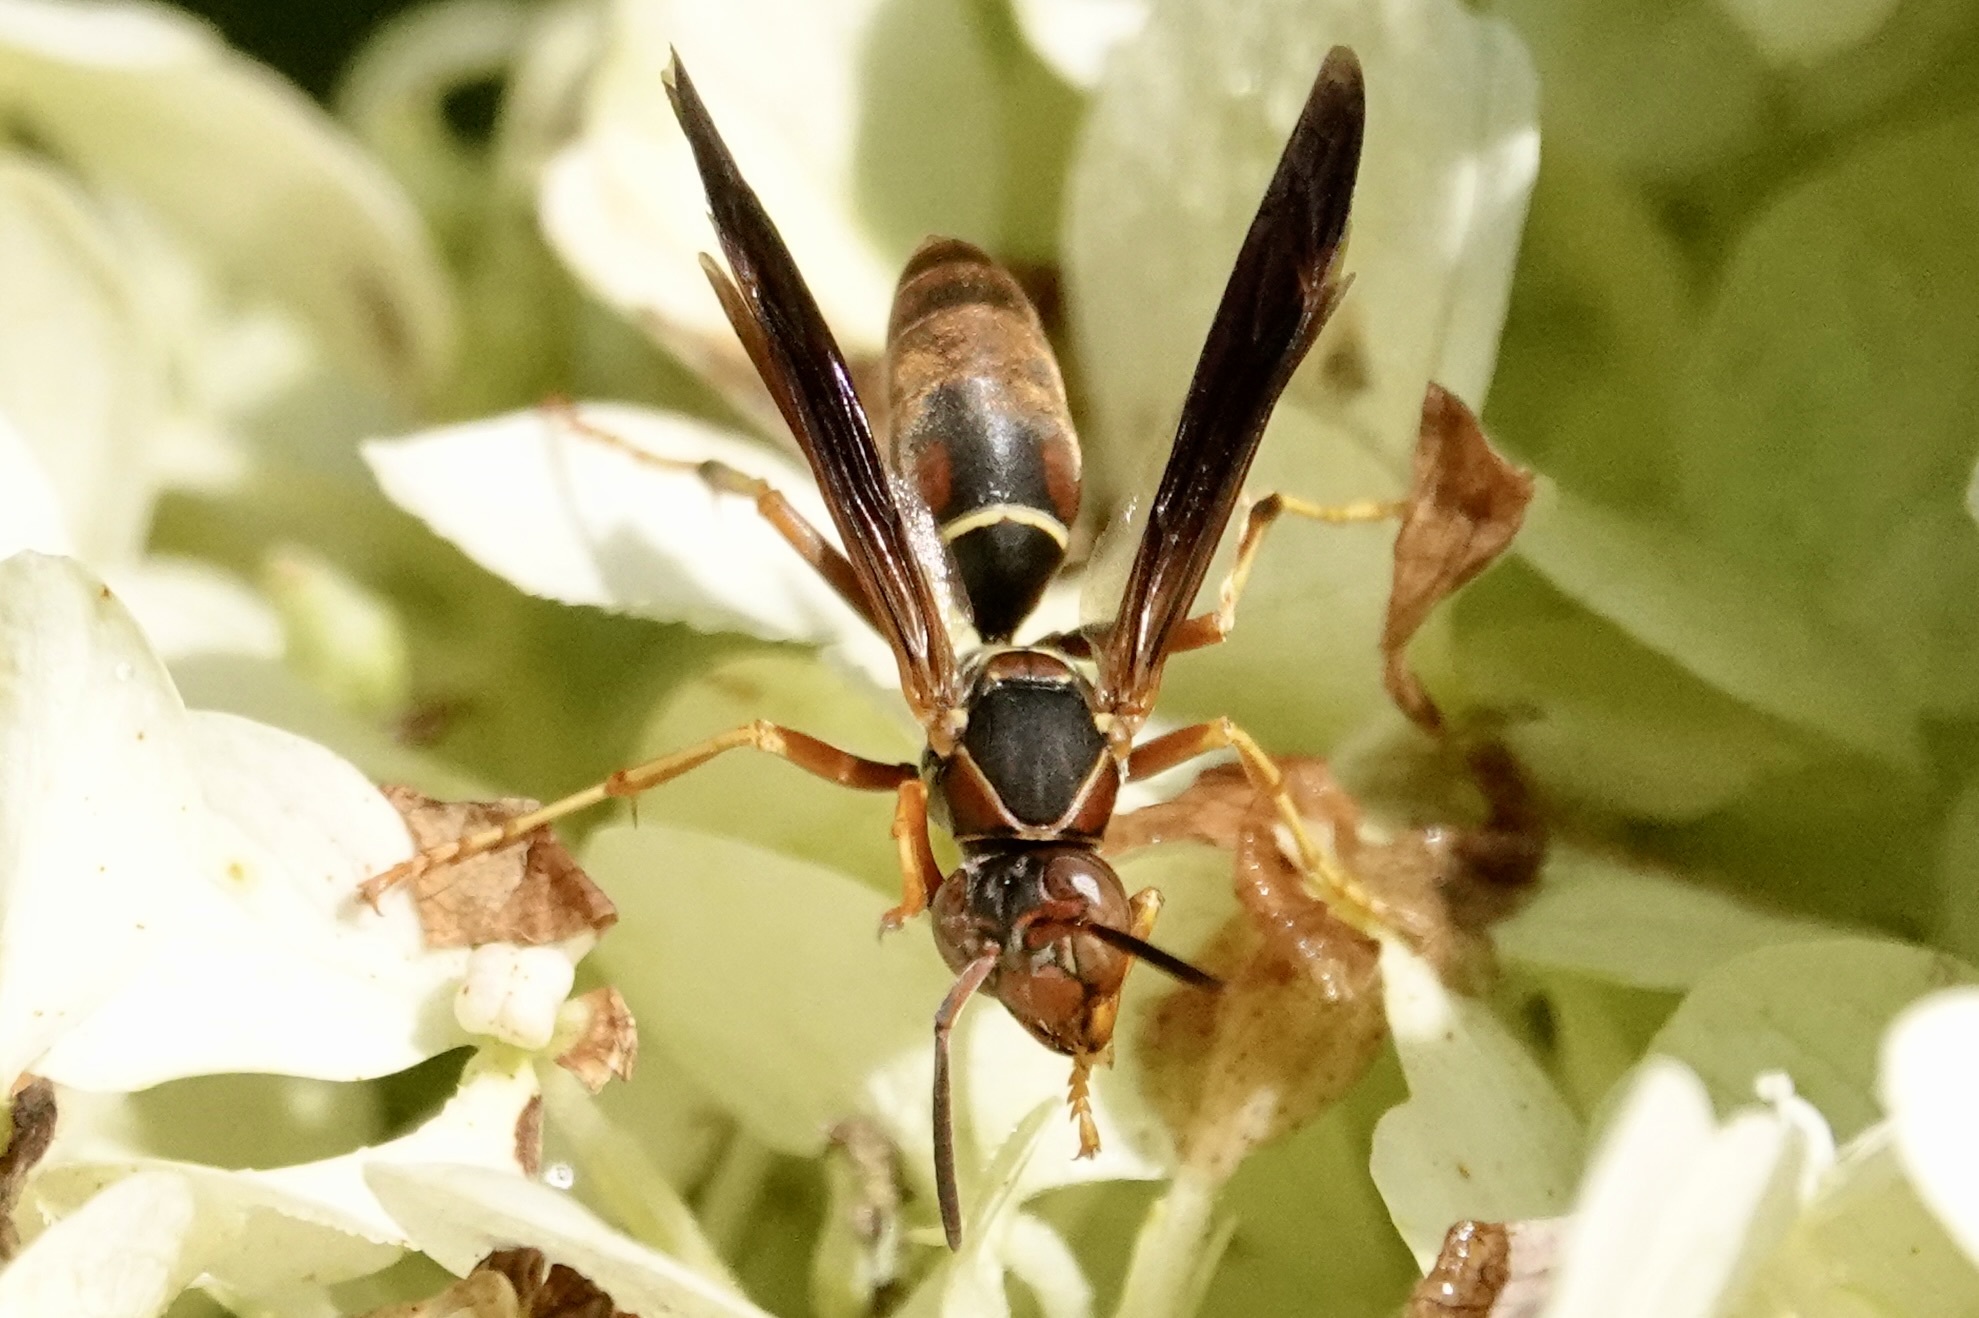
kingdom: Animalia
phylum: Arthropoda
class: Insecta
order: Hymenoptera
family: Eumenidae
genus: Polistes
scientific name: Polistes fuscatus
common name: Dark paper wasp
